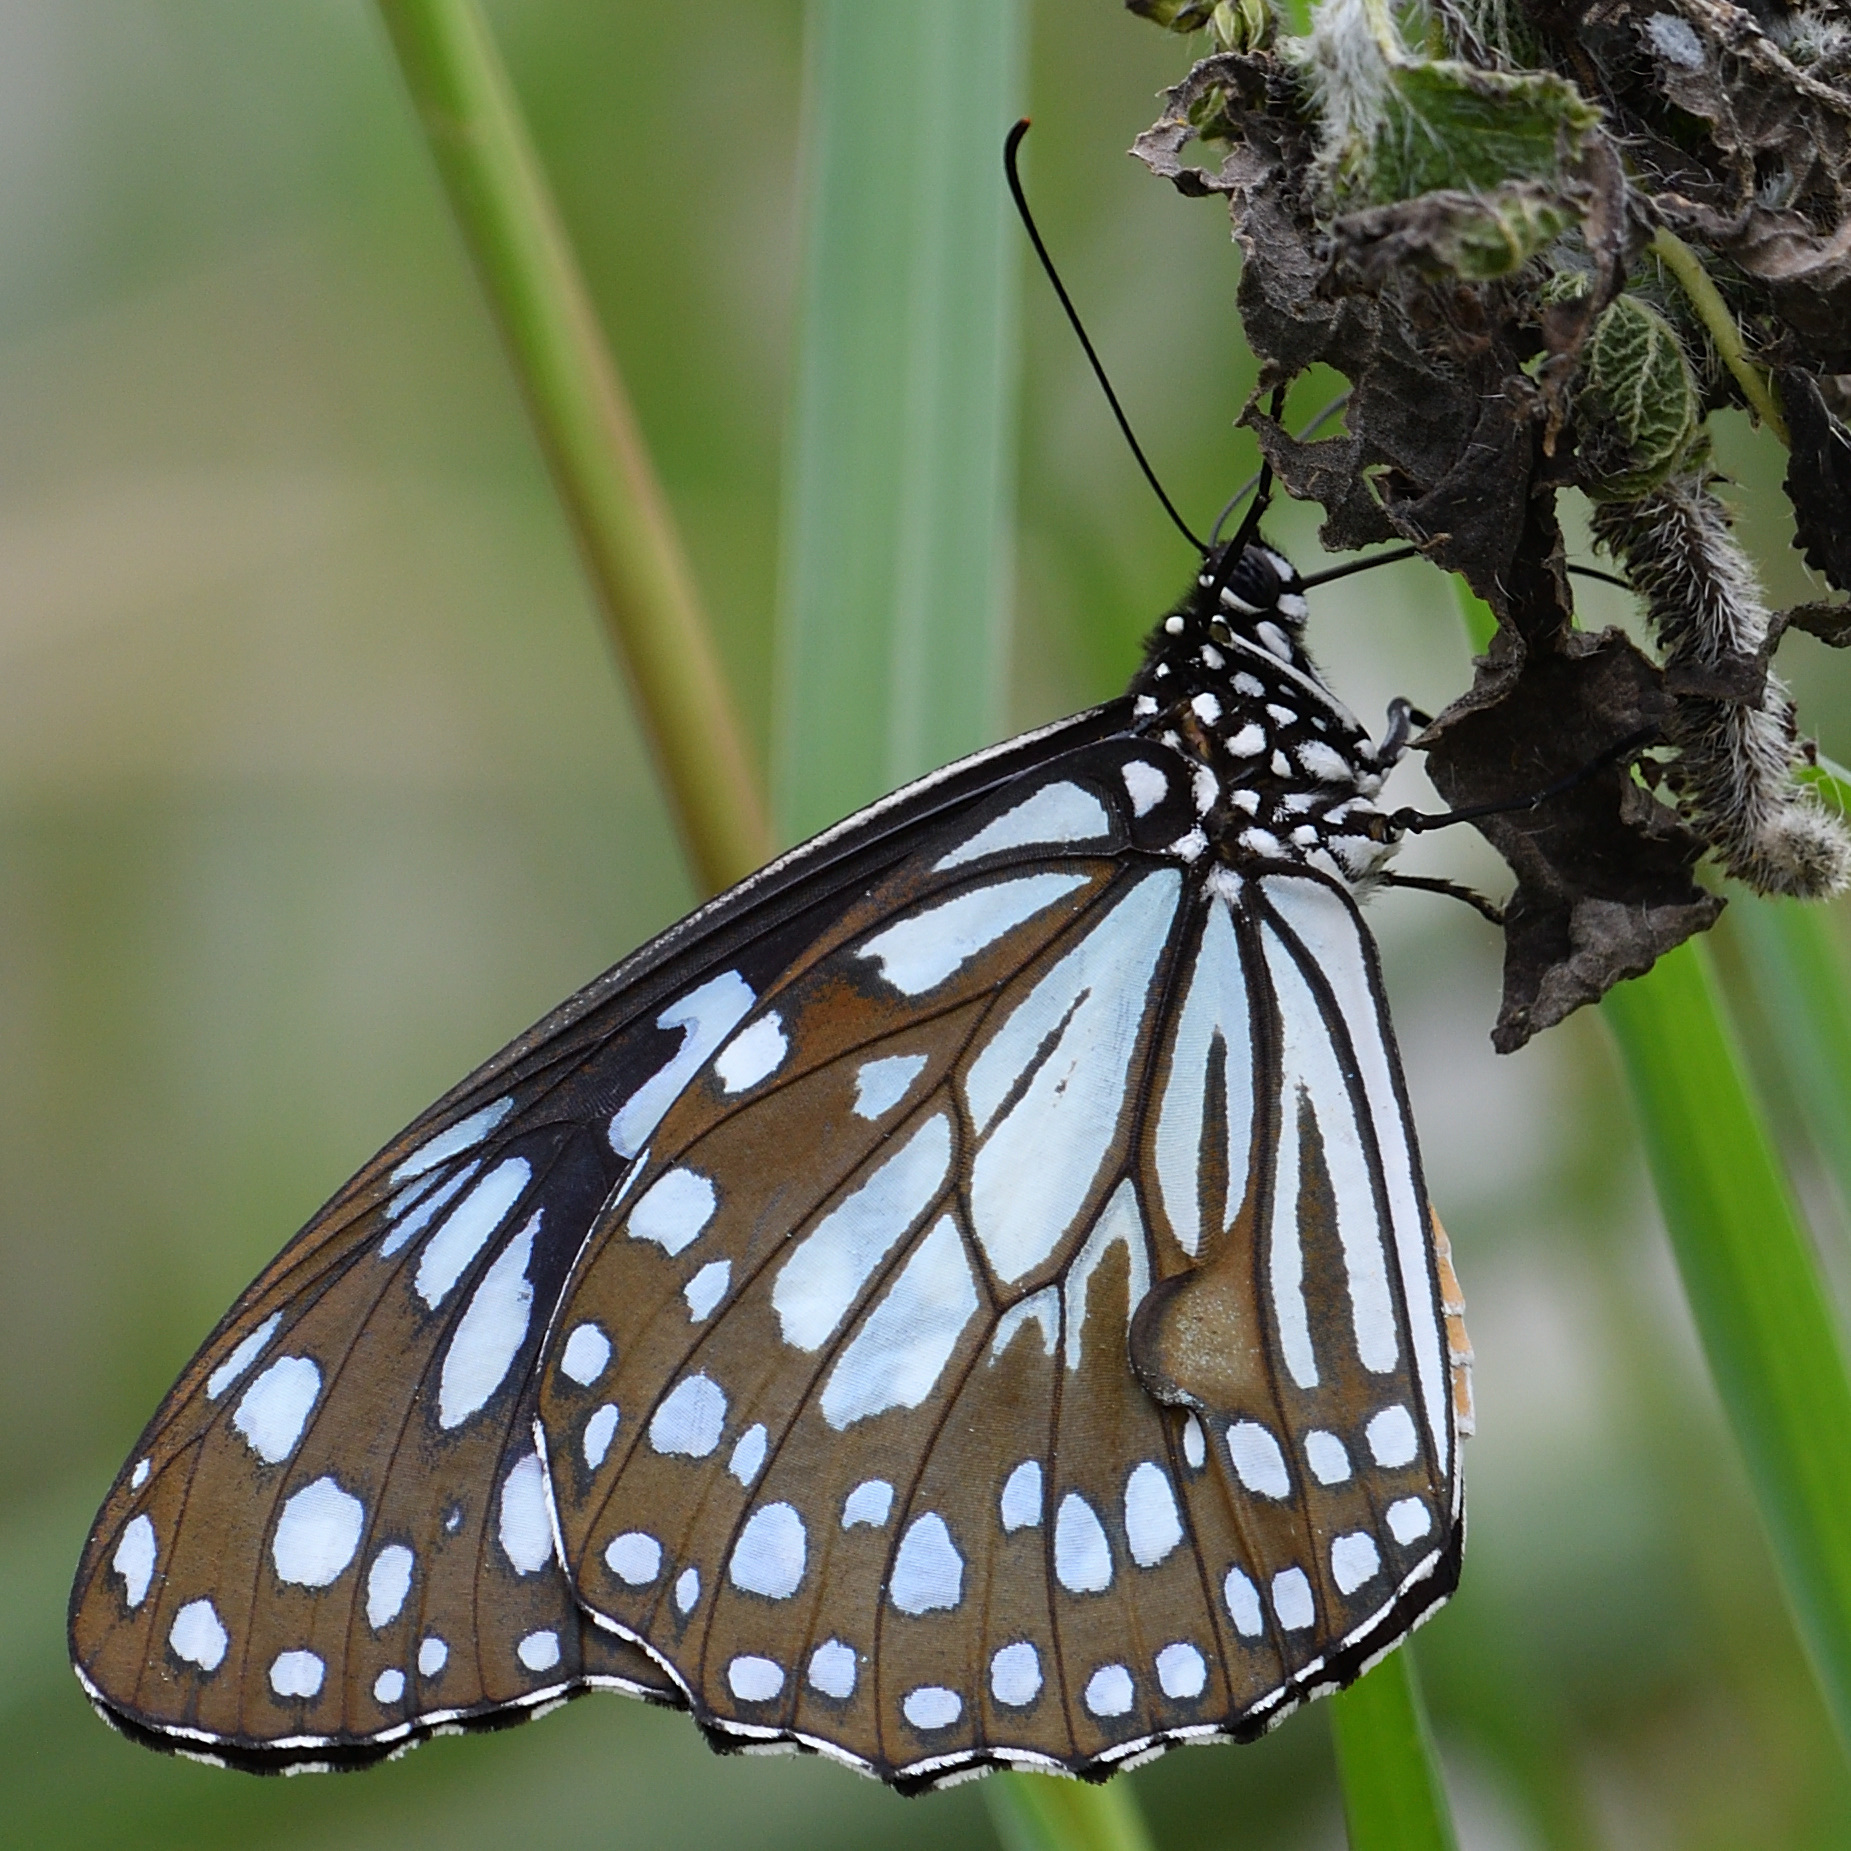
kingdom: Animalia
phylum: Arthropoda
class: Insecta
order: Lepidoptera
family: Nymphalidae
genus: Tirumala
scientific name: Tirumala limniace
